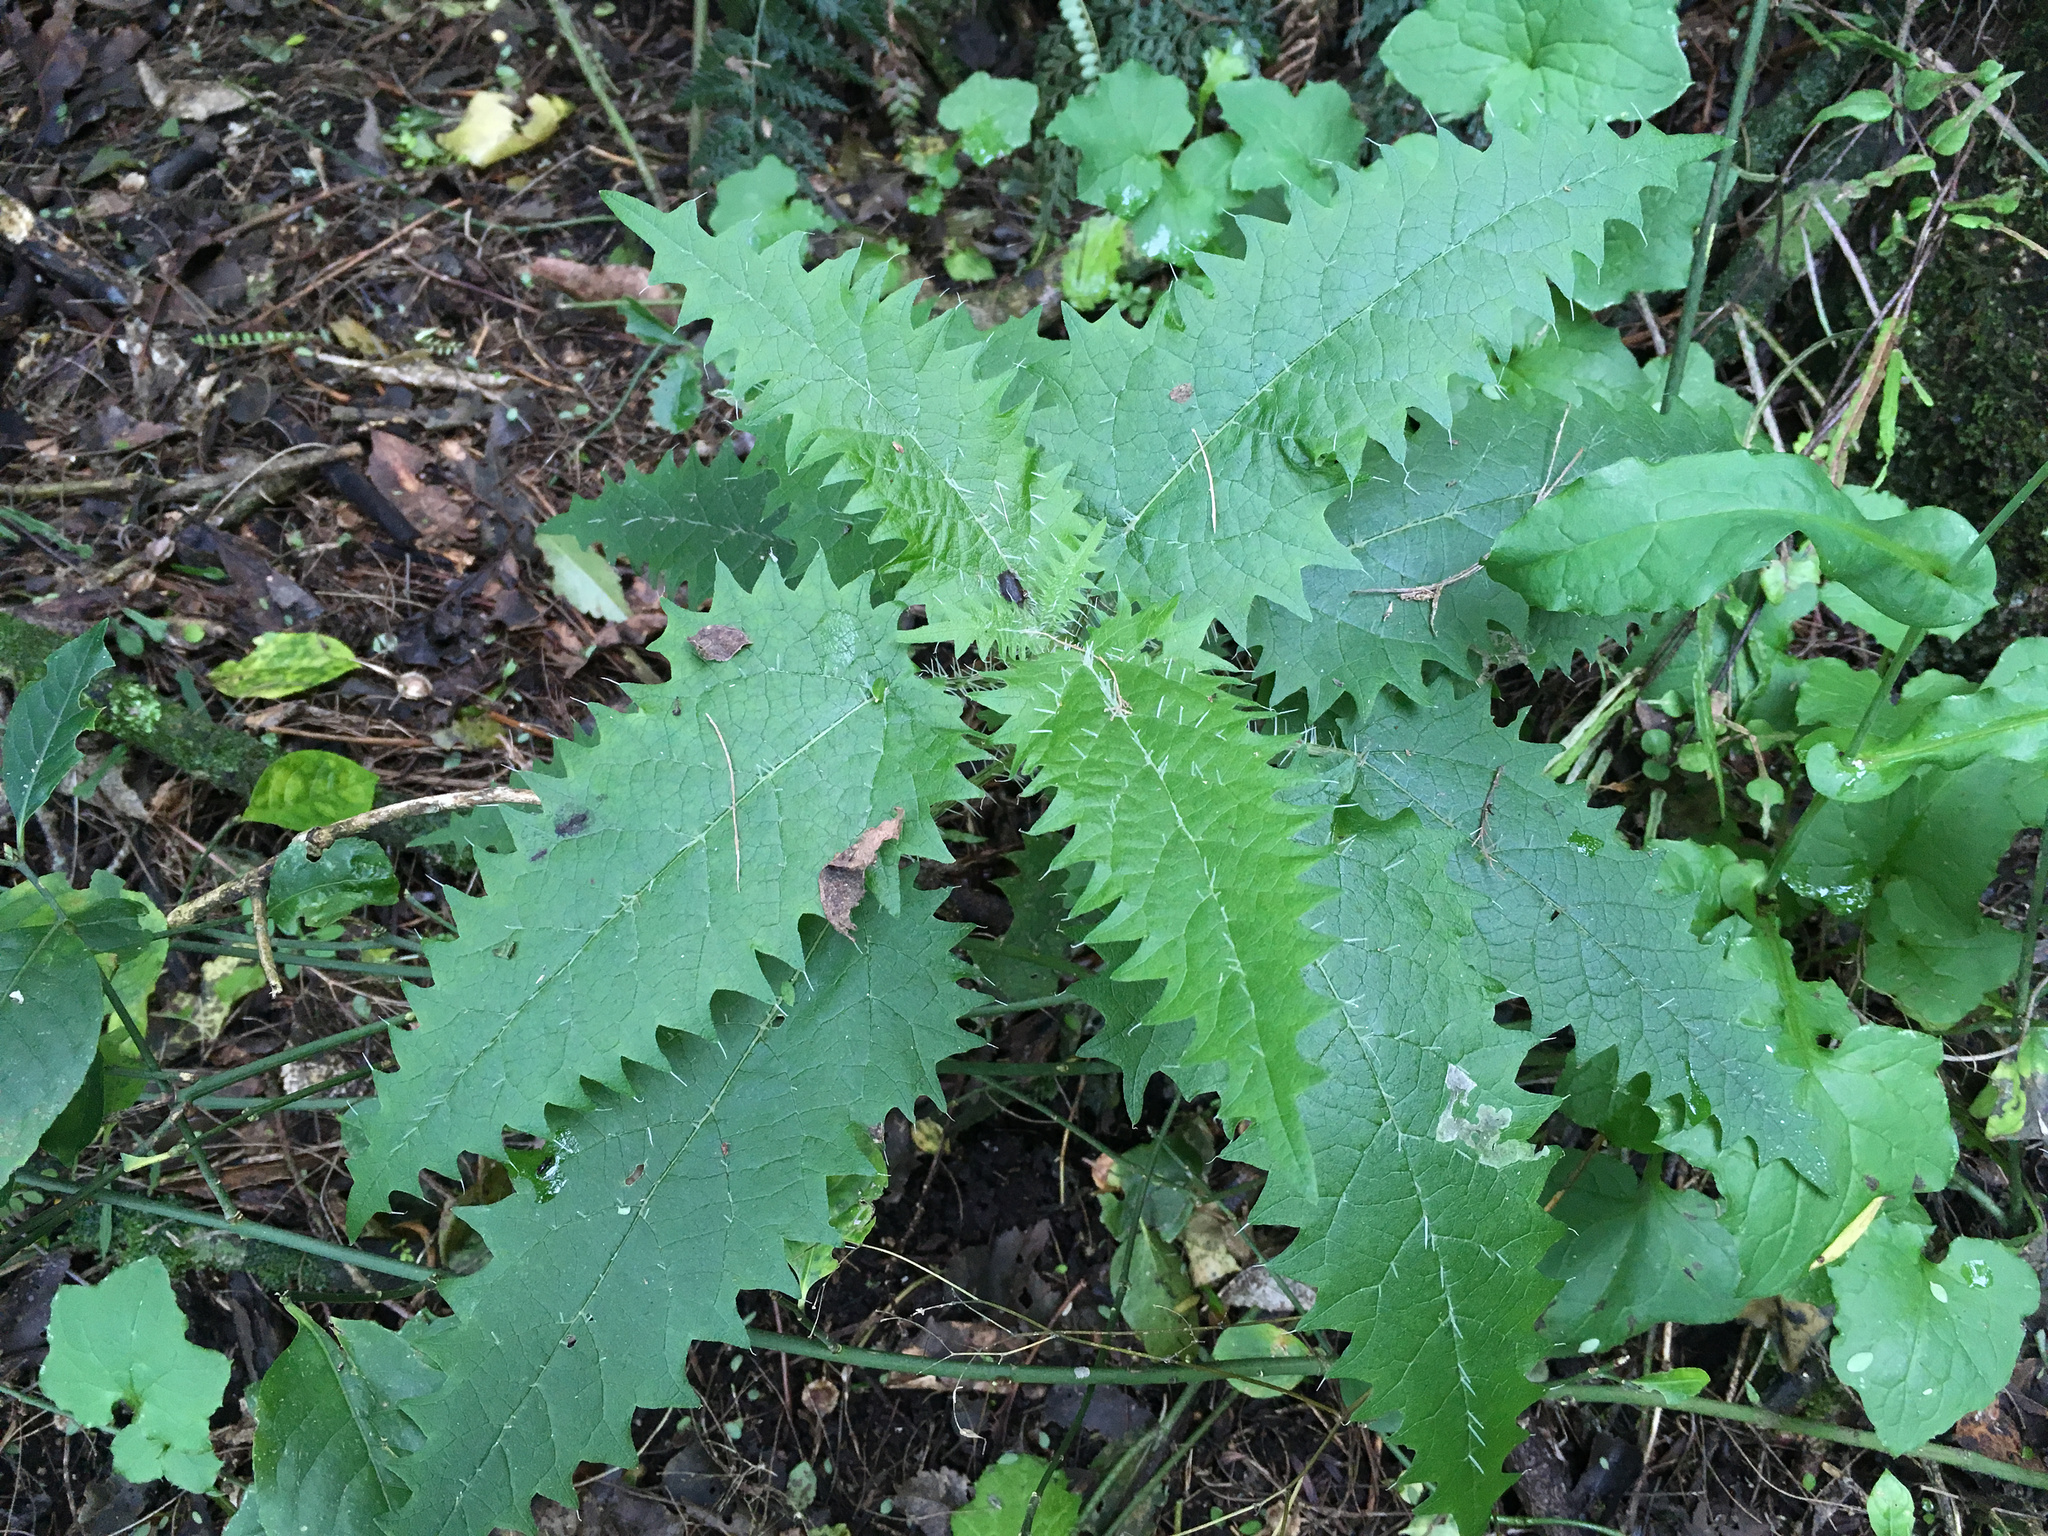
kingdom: Plantae
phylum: Tracheophyta
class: Magnoliopsida
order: Rosales
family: Urticaceae
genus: Urtica
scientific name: Urtica ferox
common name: Tree nettle
